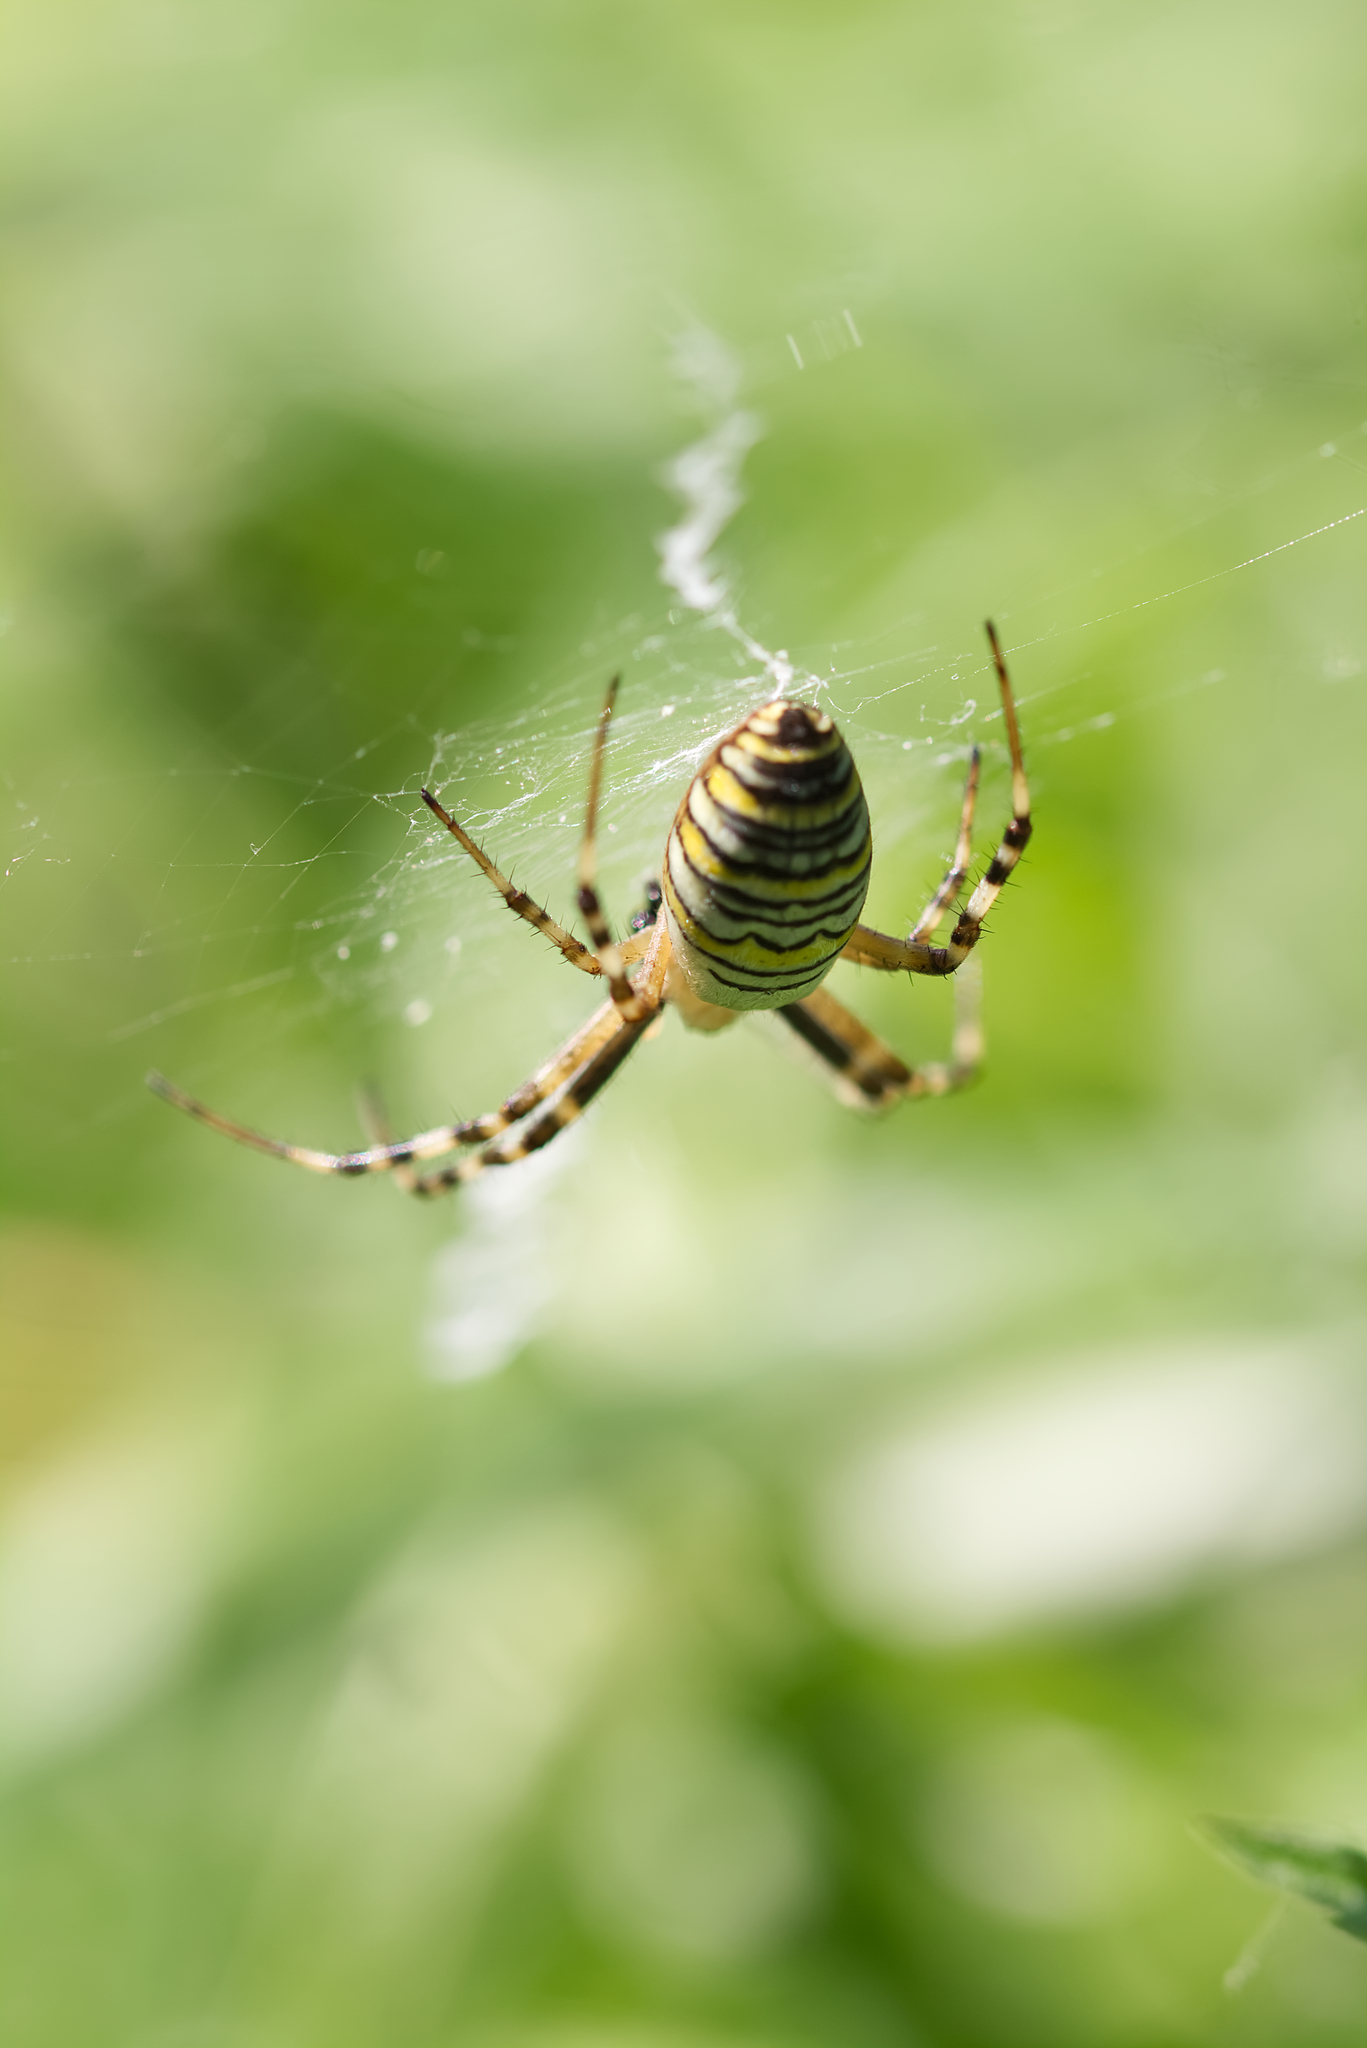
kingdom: Animalia
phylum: Arthropoda
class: Arachnida
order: Araneae
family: Araneidae
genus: Argiope
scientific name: Argiope bruennichi
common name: Wasp spider
